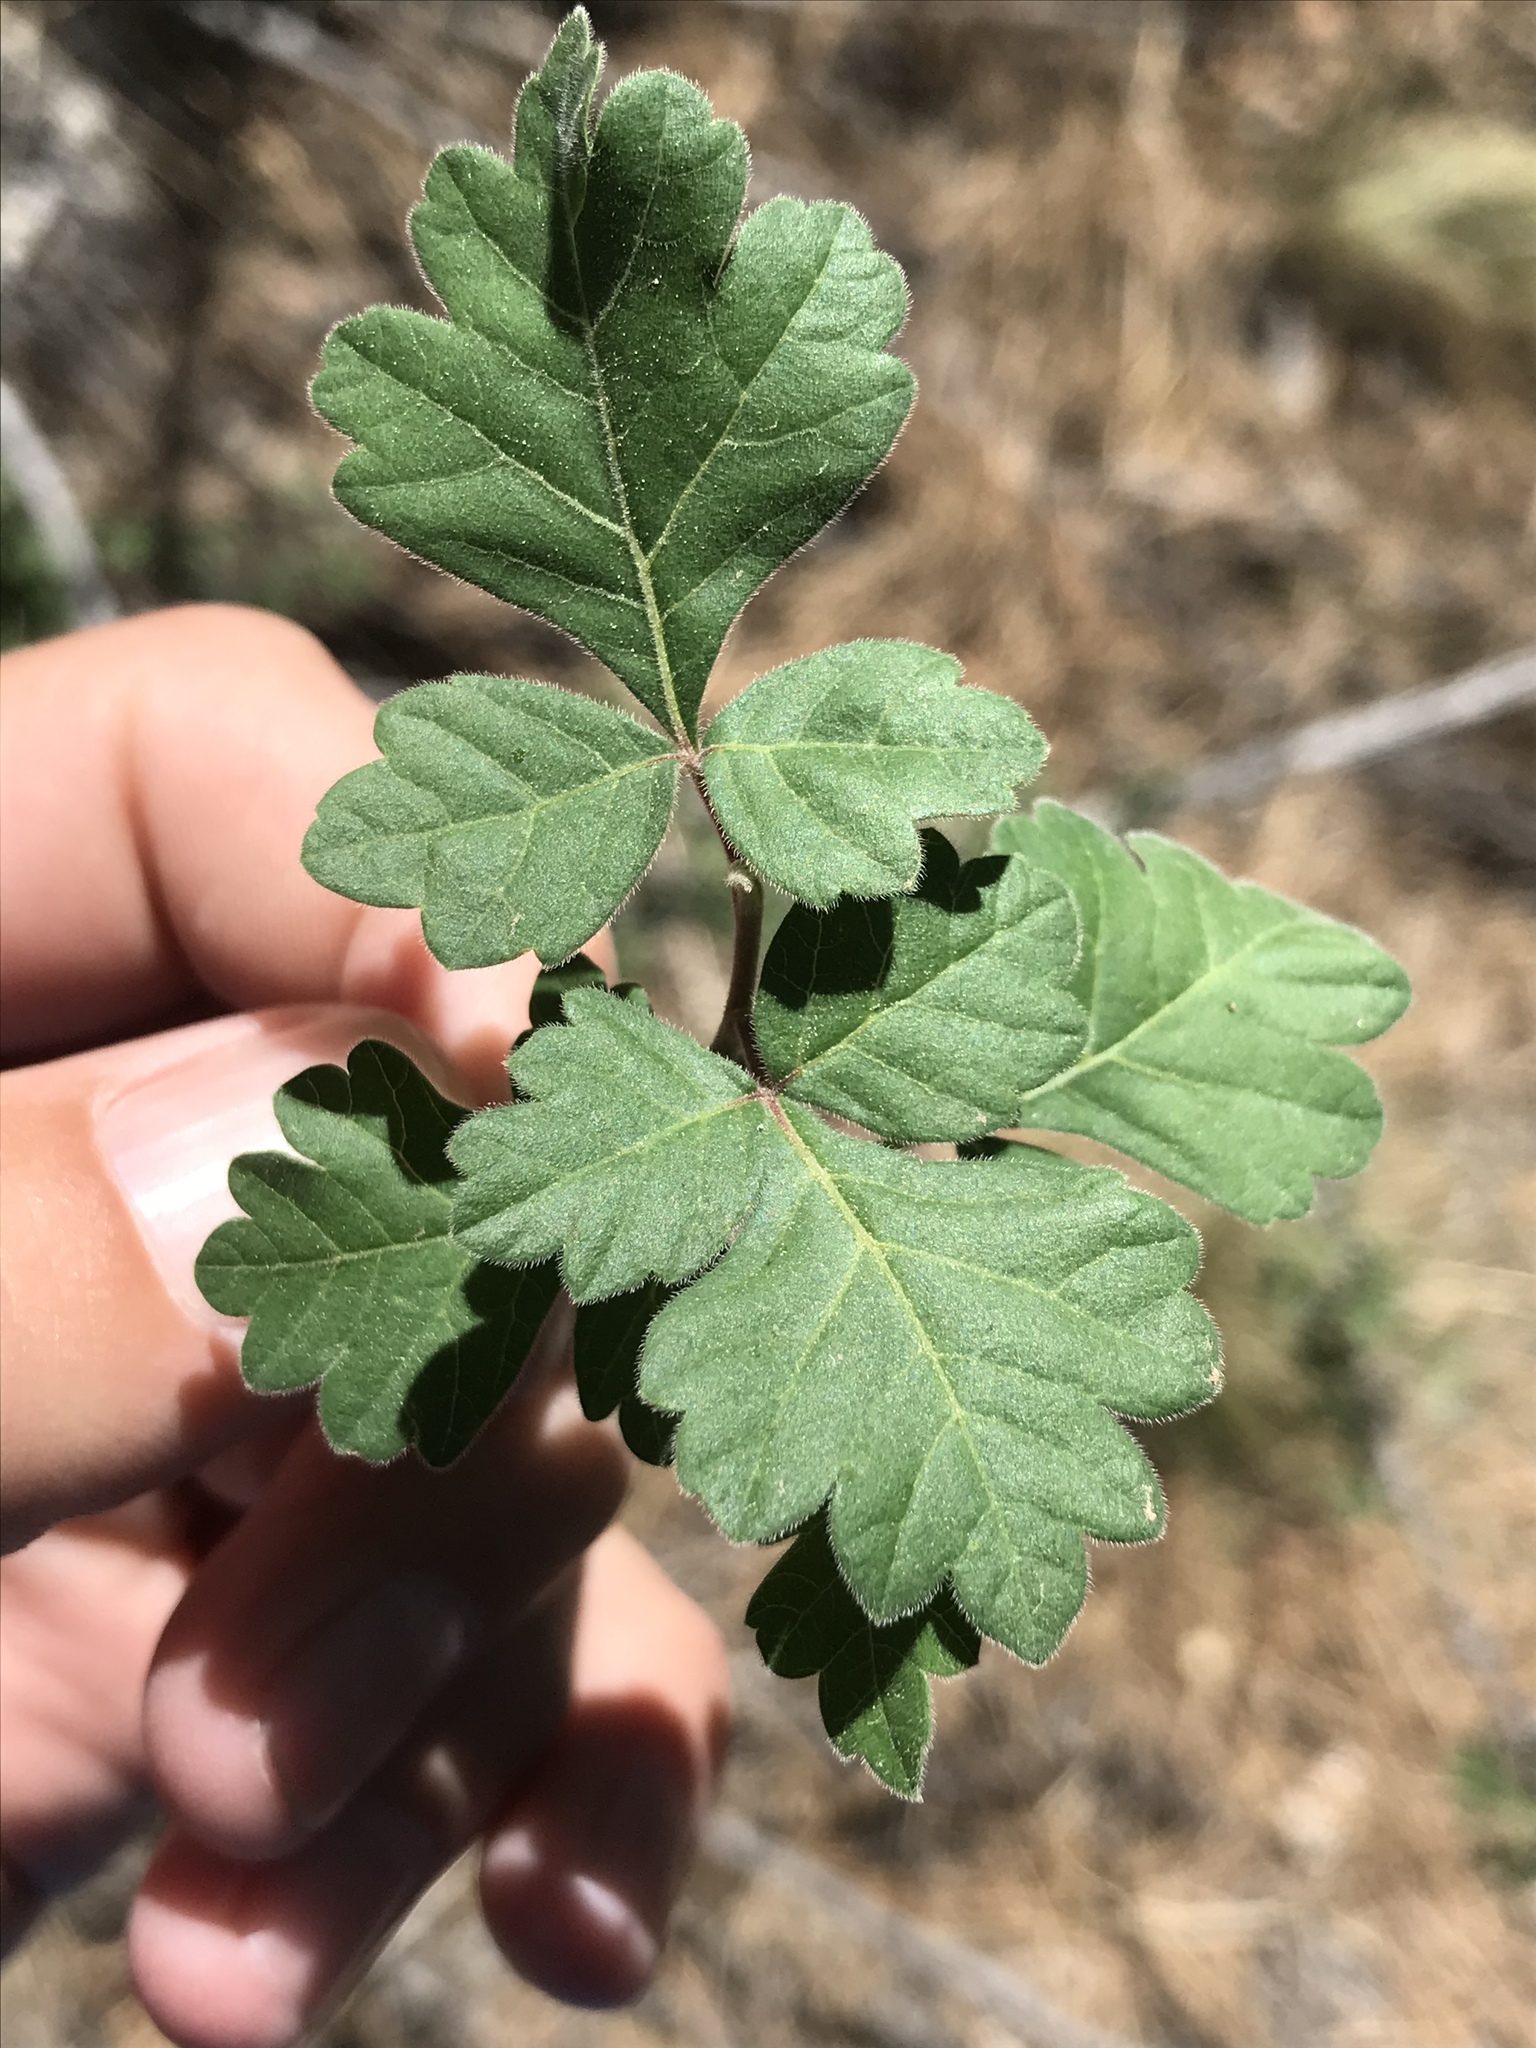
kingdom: Plantae
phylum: Tracheophyta
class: Magnoliopsida
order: Sapindales
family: Anacardiaceae
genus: Rhus
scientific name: Rhus aromatica
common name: Aromatic sumac
